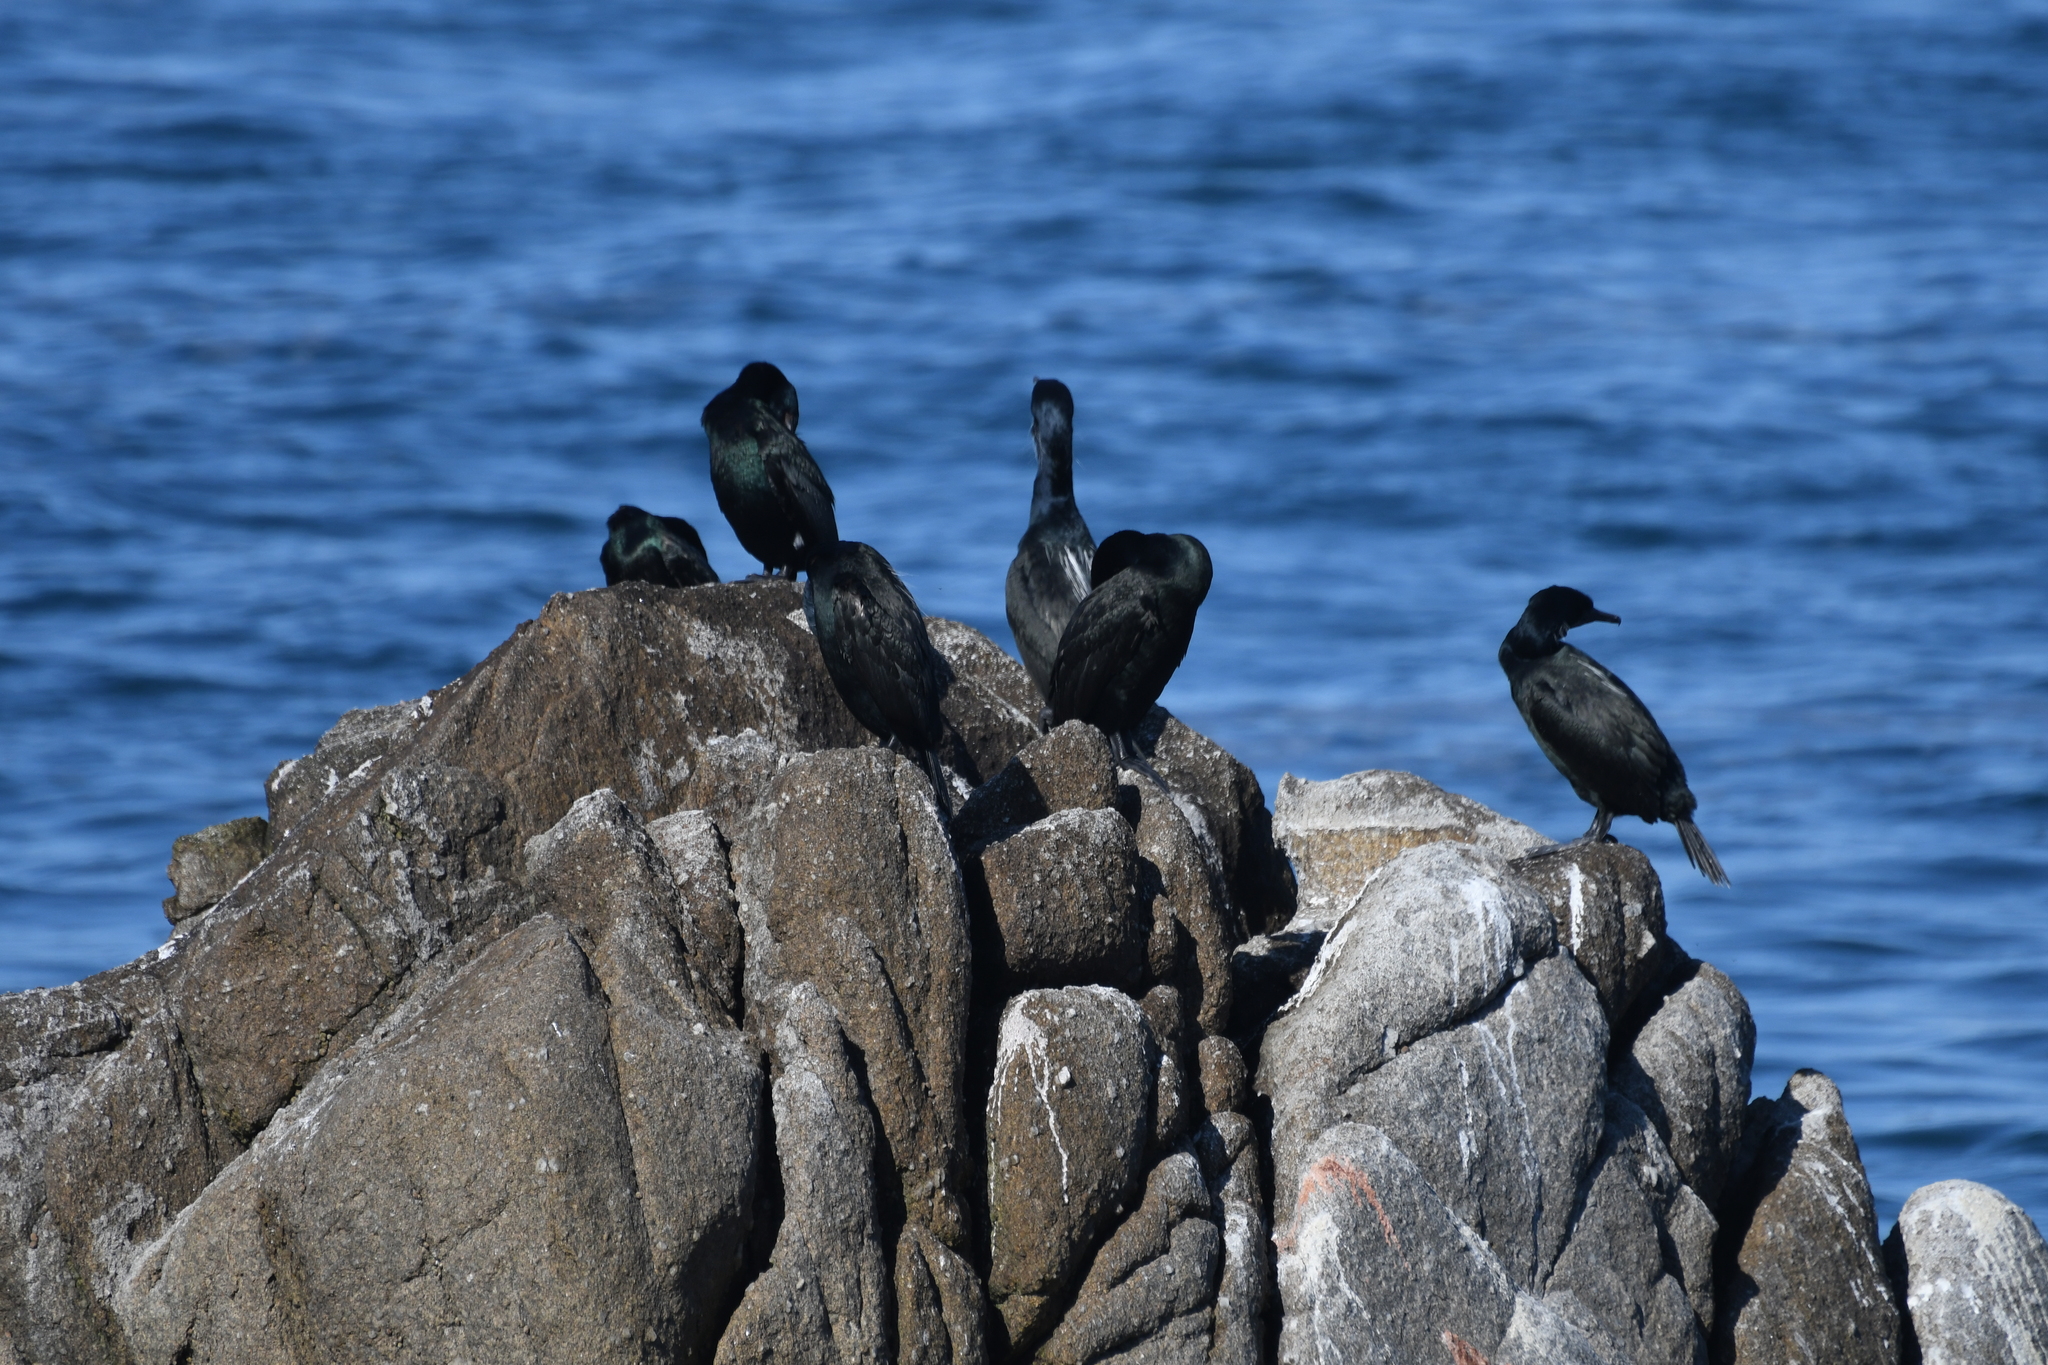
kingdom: Animalia
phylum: Chordata
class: Aves
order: Suliformes
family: Phalacrocoracidae
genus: Phalacrocorax
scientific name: Phalacrocorax pelagicus
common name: Pelagic cormorant
